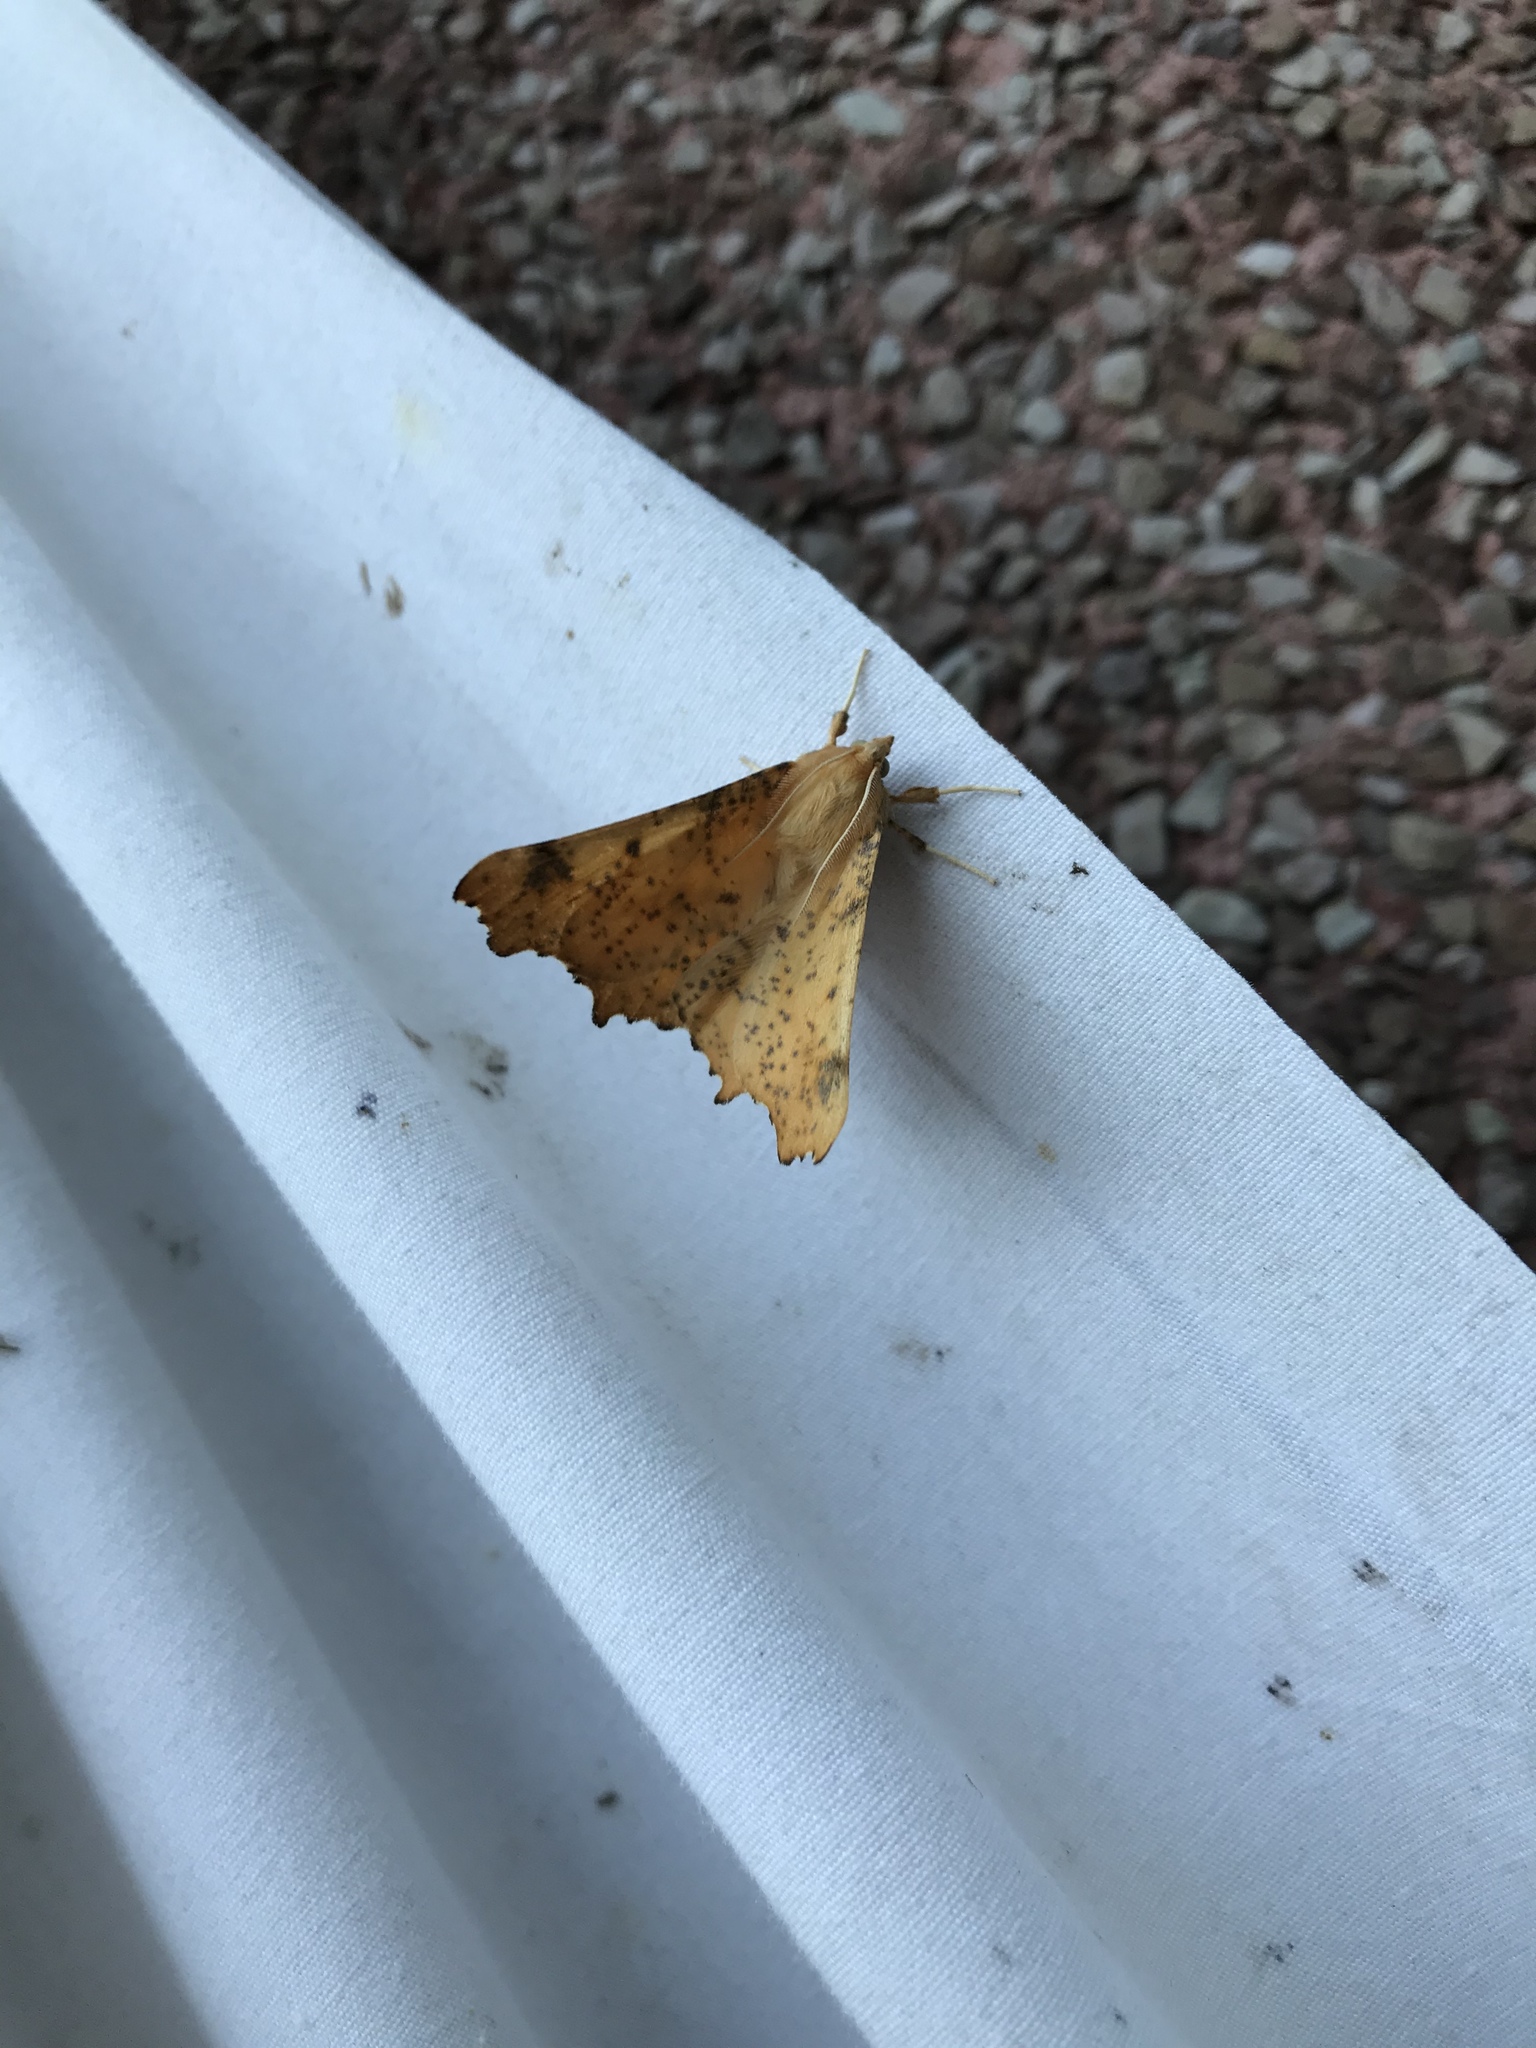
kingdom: Animalia
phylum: Arthropoda
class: Insecta
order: Lepidoptera
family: Geometridae
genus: Ennomos
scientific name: Ennomos magnaria
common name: Maple spanworm
